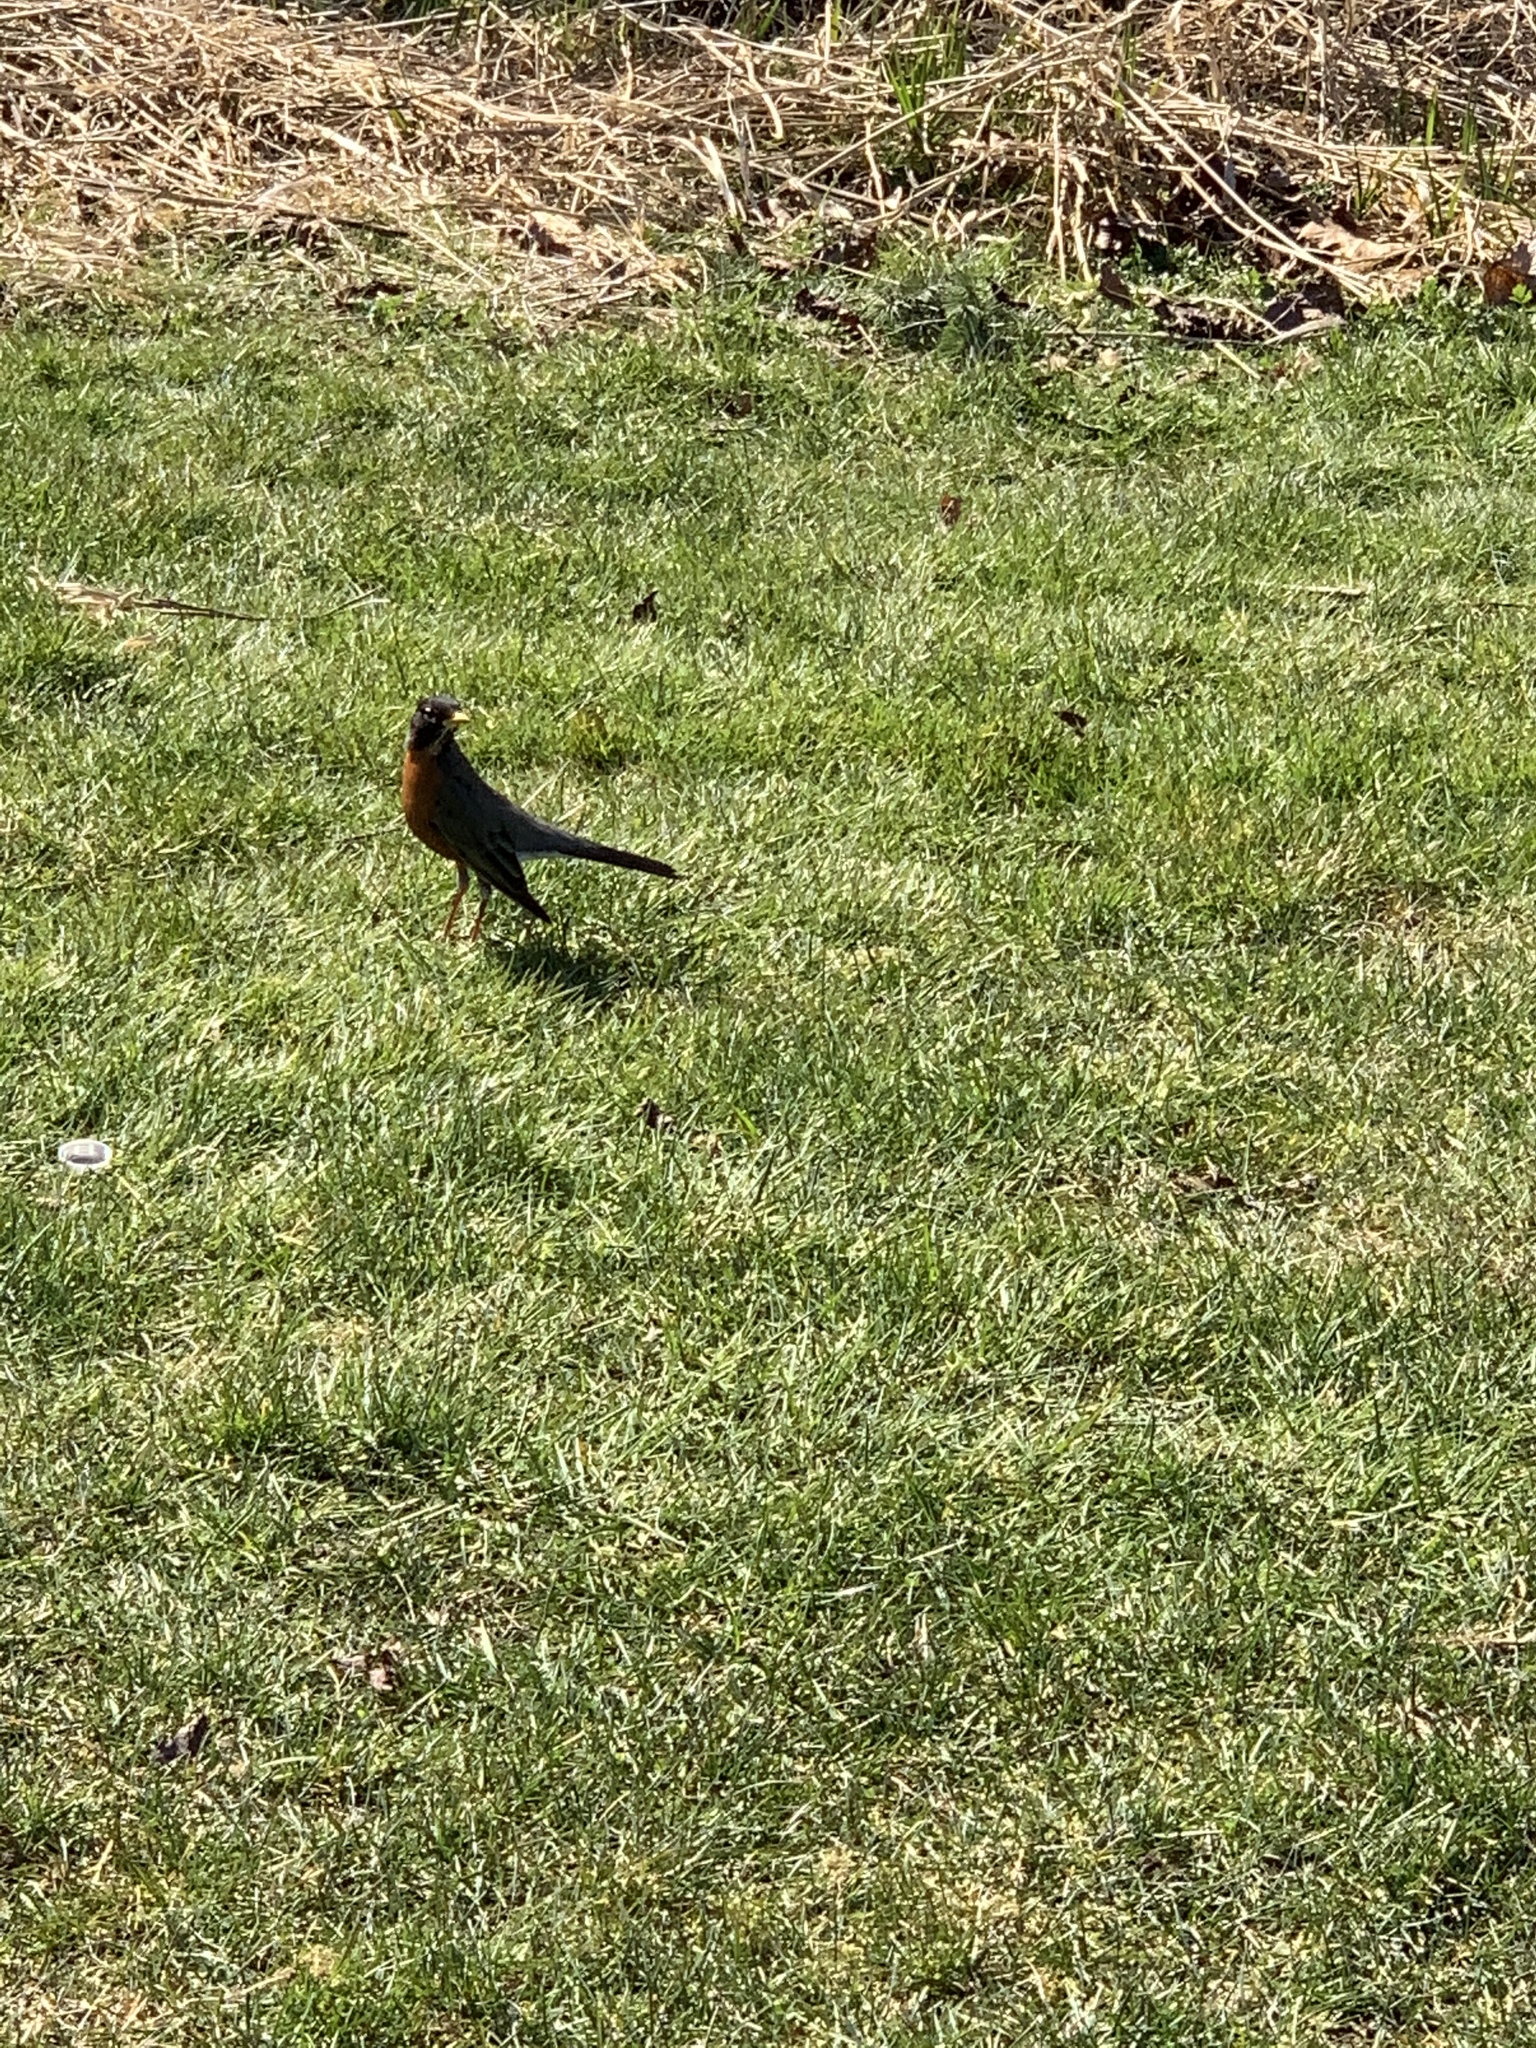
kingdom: Animalia
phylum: Chordata
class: Aves
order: Passeriformes
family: Turdidae
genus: Turdus
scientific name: Turdus migratorius
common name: American robin
